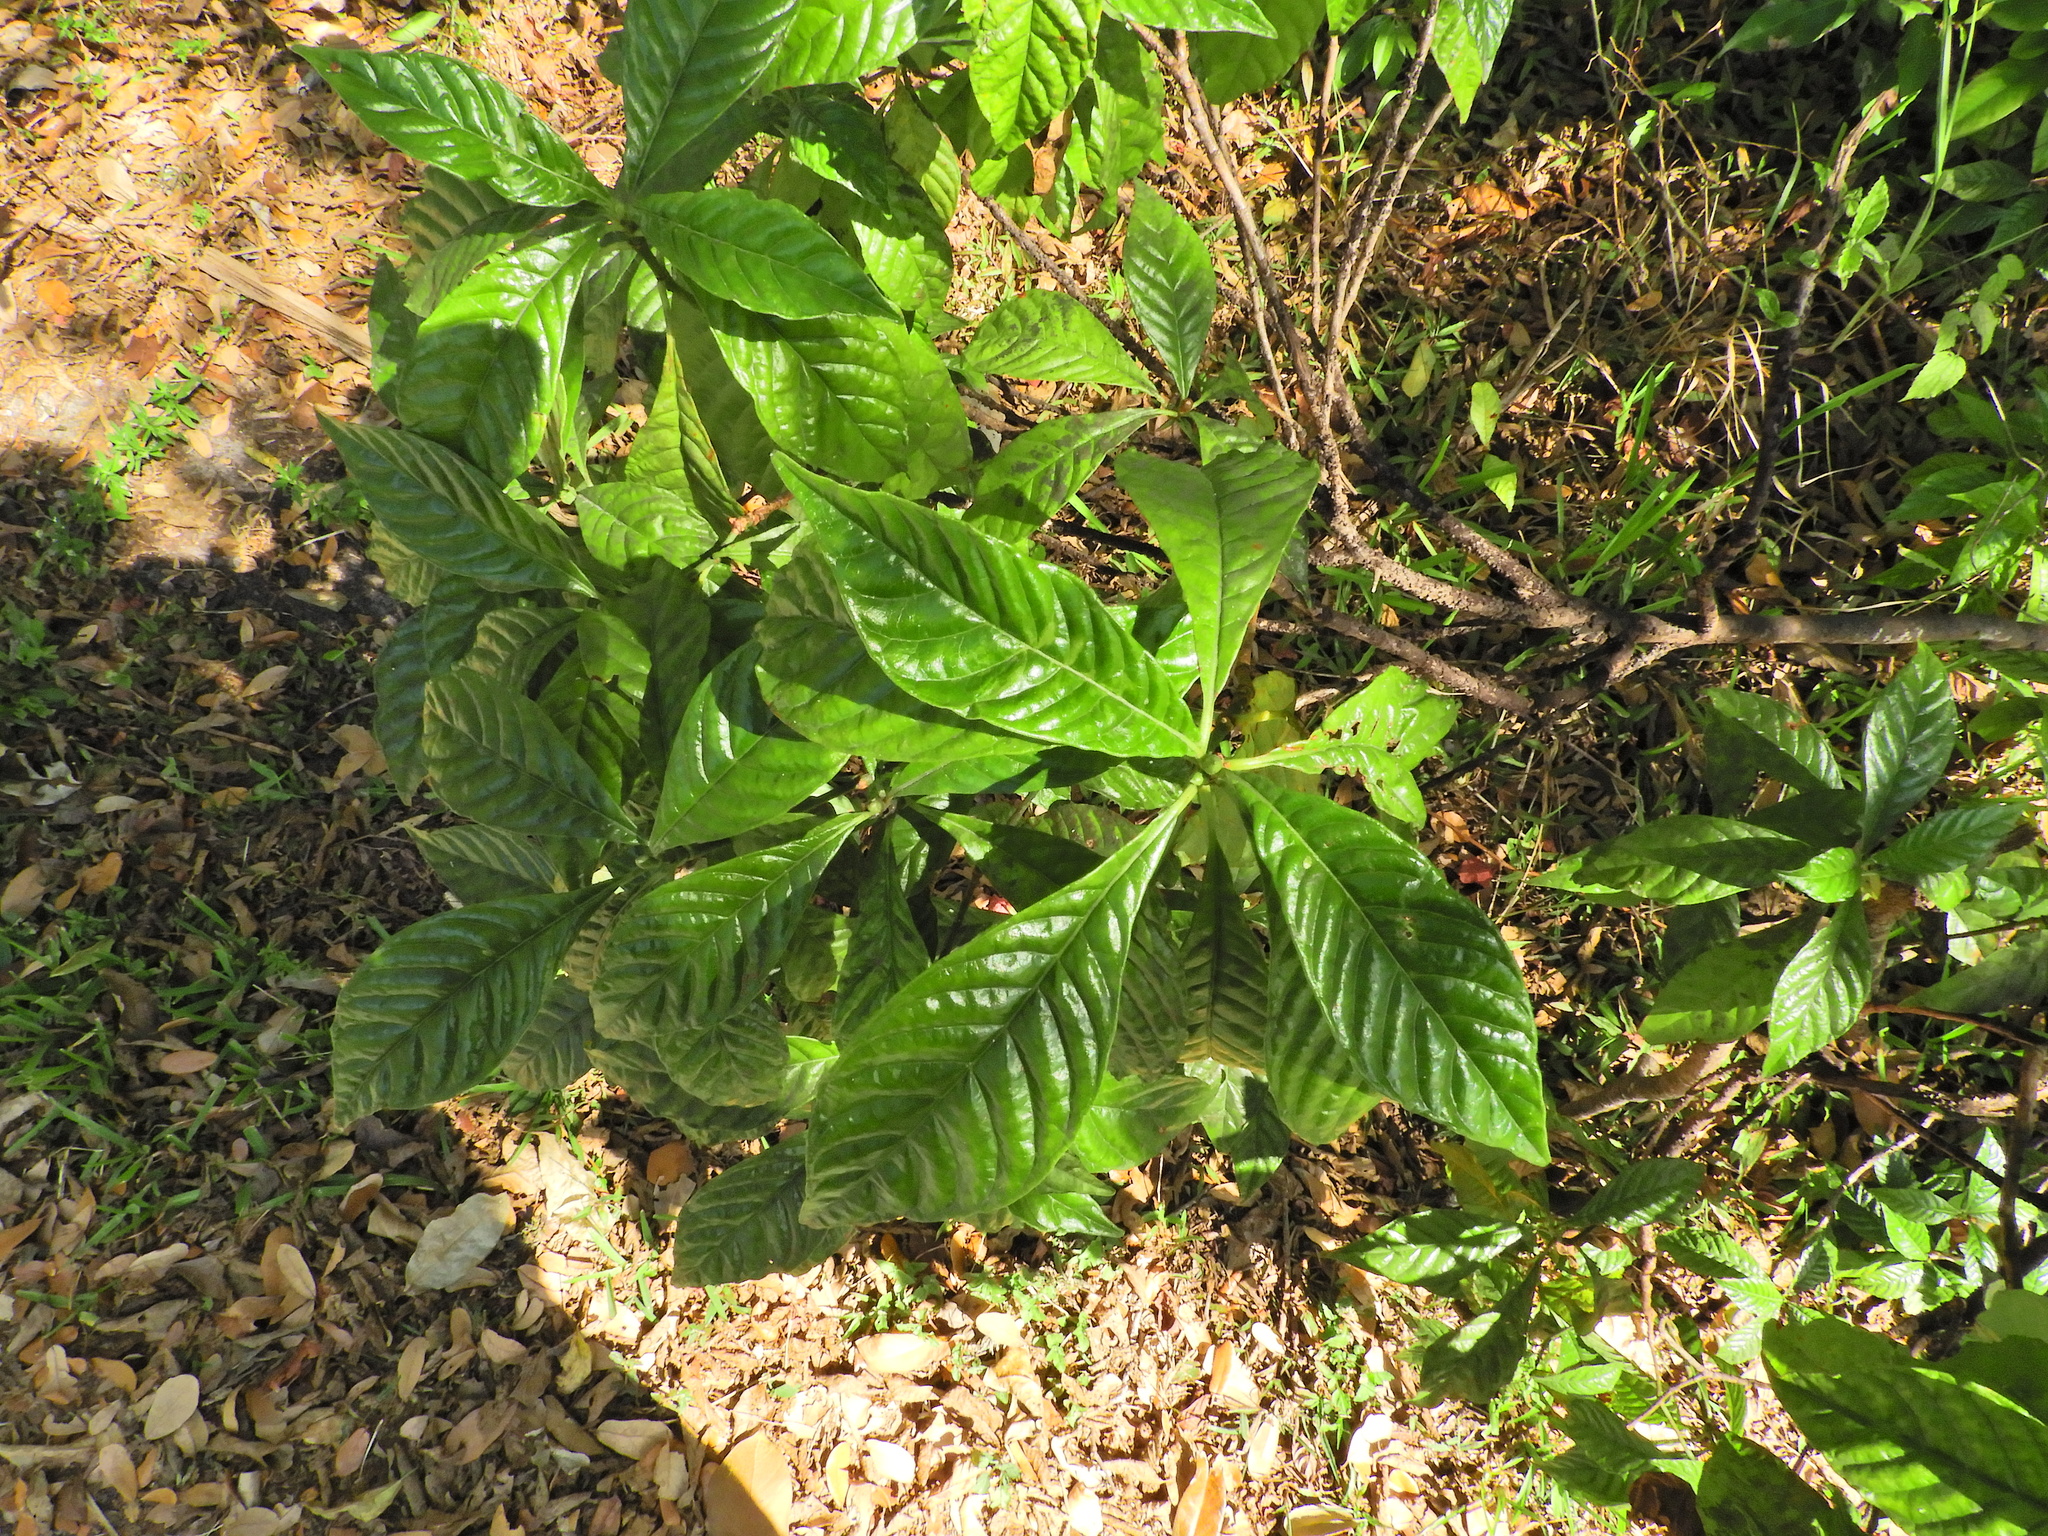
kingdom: Plantae
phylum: Tracheophyta
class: Magnoliopsida
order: Gentianales
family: Rubiaceae
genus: Psychotria
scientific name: Psychotria nervosa
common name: Bastard cankerberry
